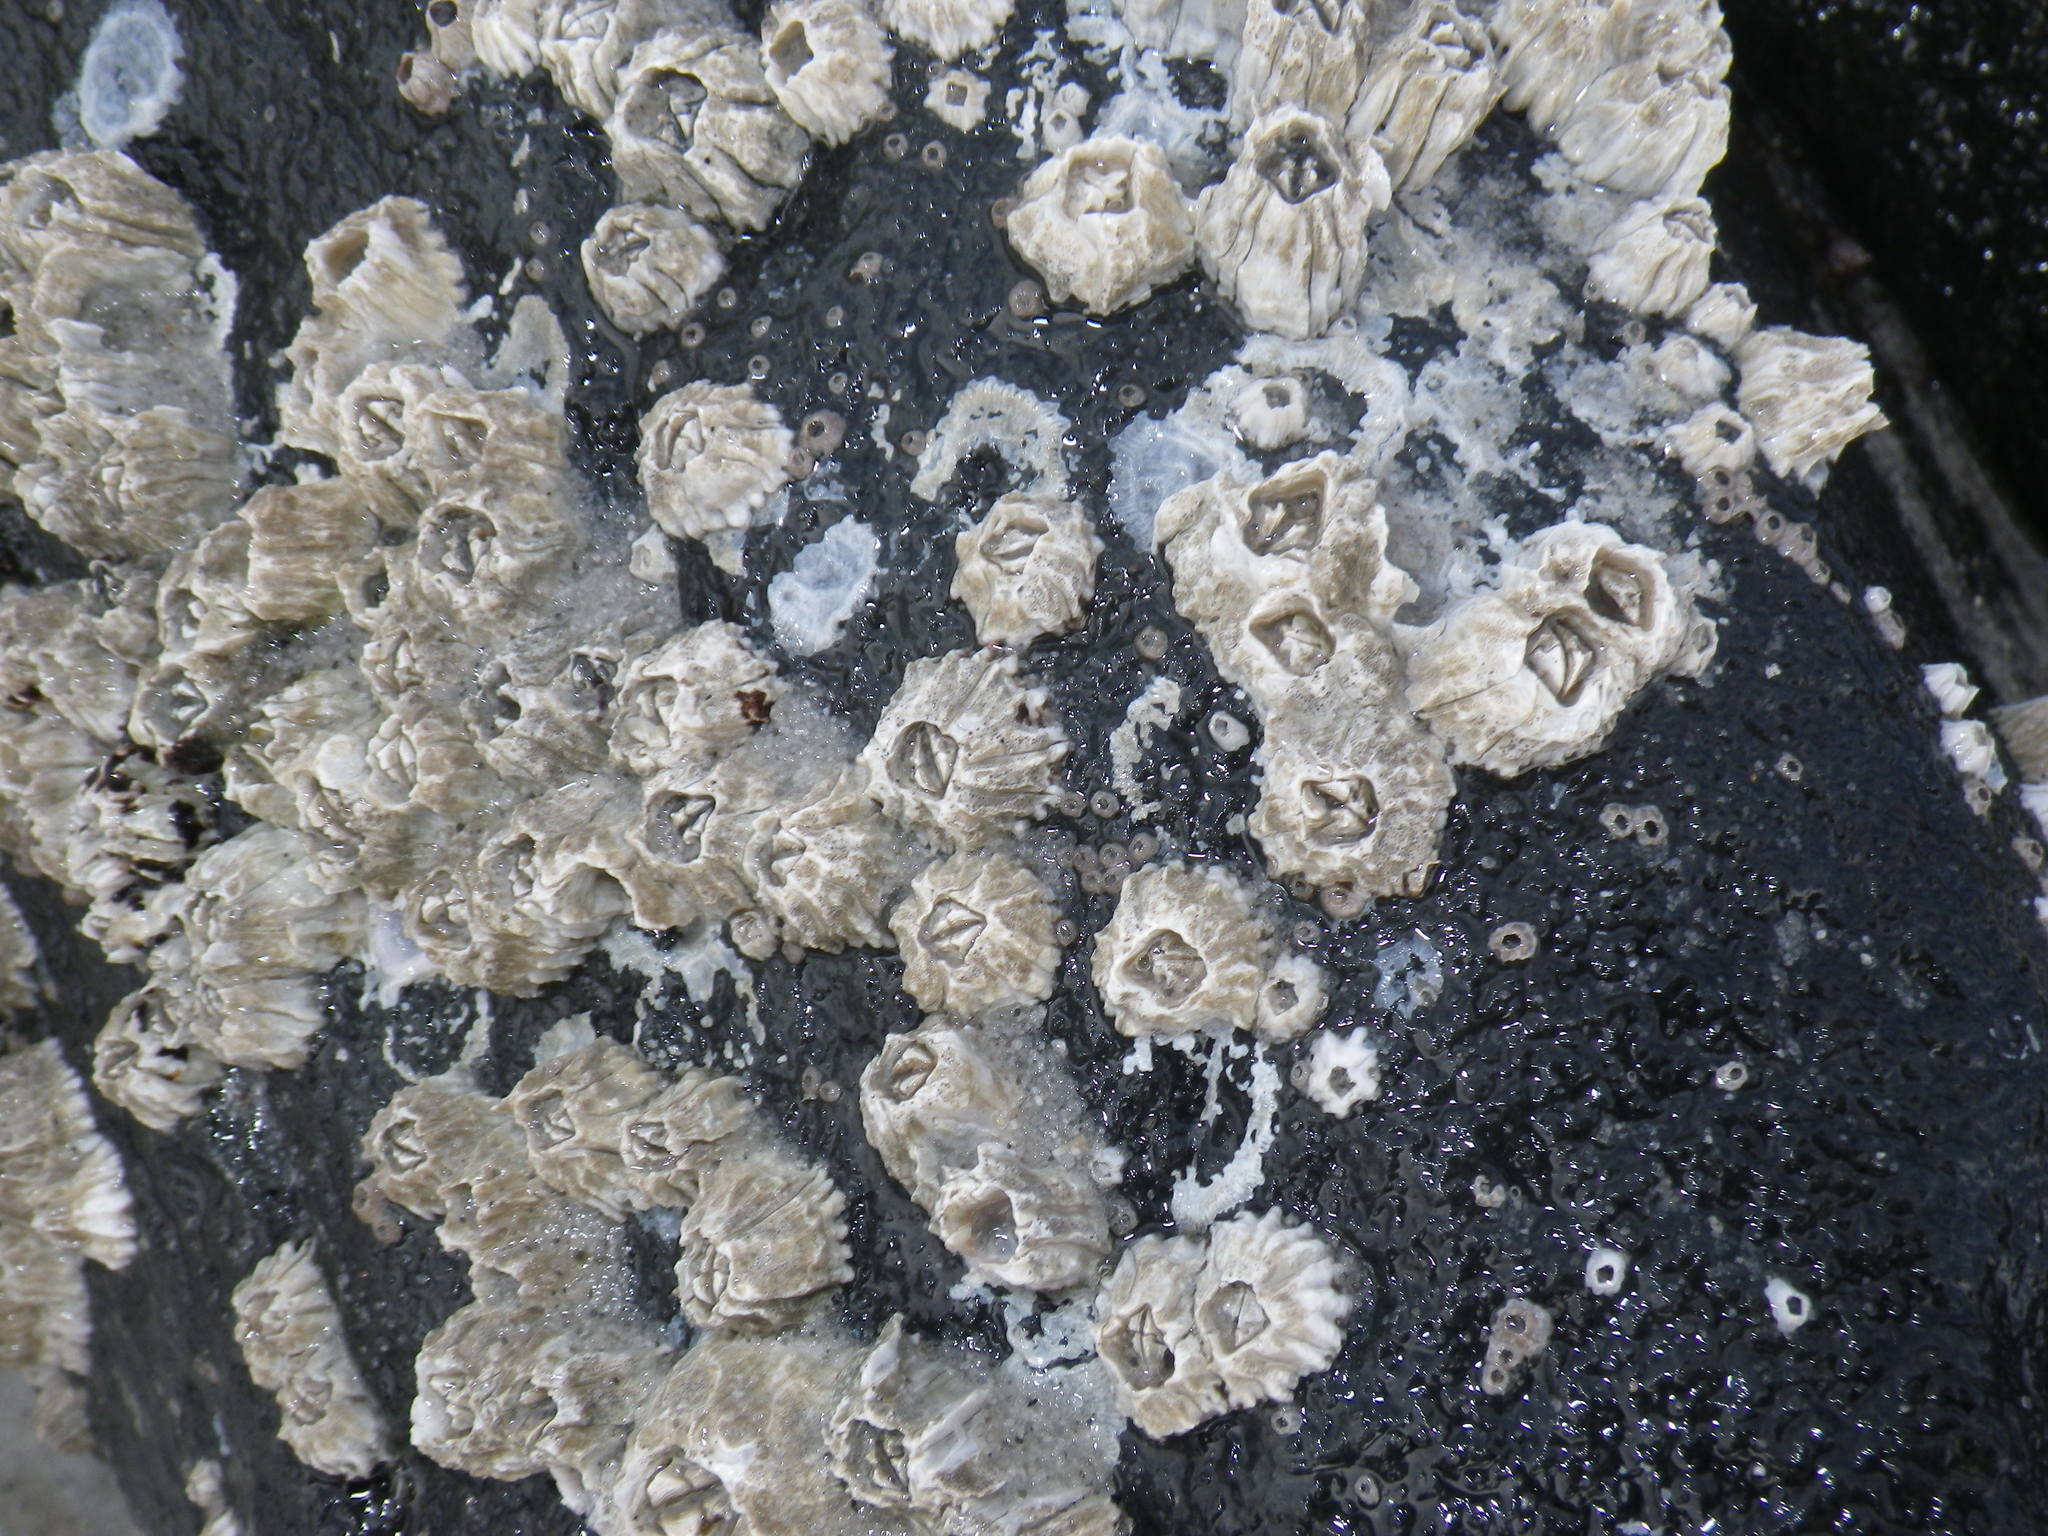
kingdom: Animalia
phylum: Arthropoda
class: Maxillopoda
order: Sessilia
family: Balanidae
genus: Balanus
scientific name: Balanus glandula
